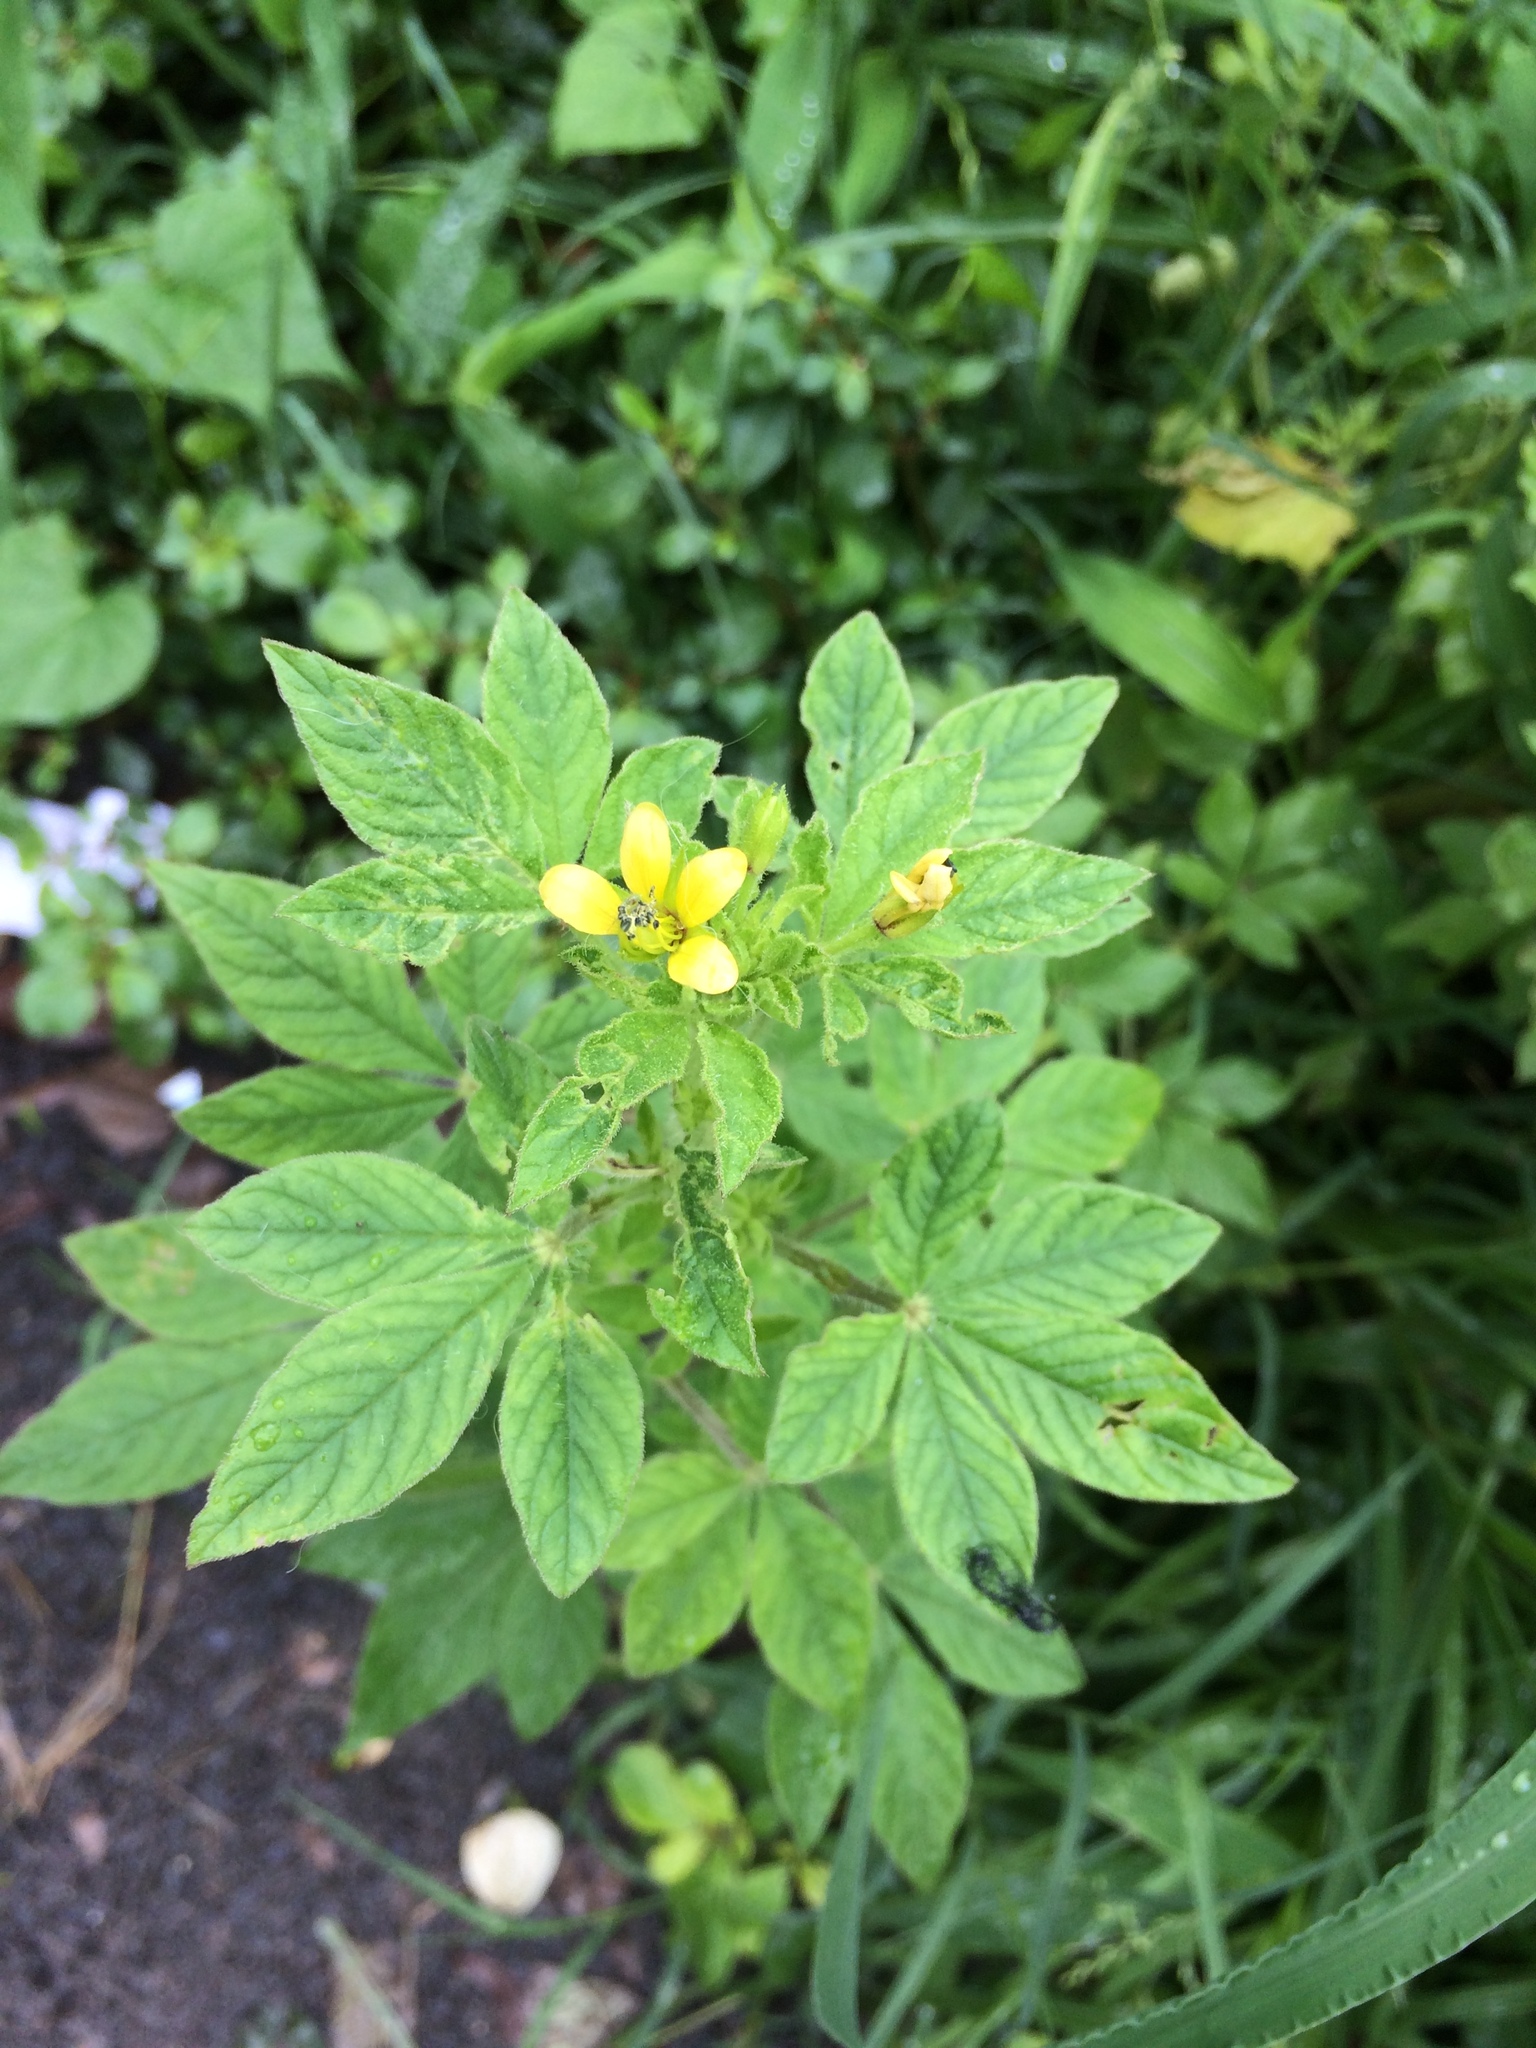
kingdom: Plantae
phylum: Tracheophyta
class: Magnoliopsida
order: Brassicales
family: Cleomaceae
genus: Arivela
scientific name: Arivela viscosa
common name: Asian spiderflower
